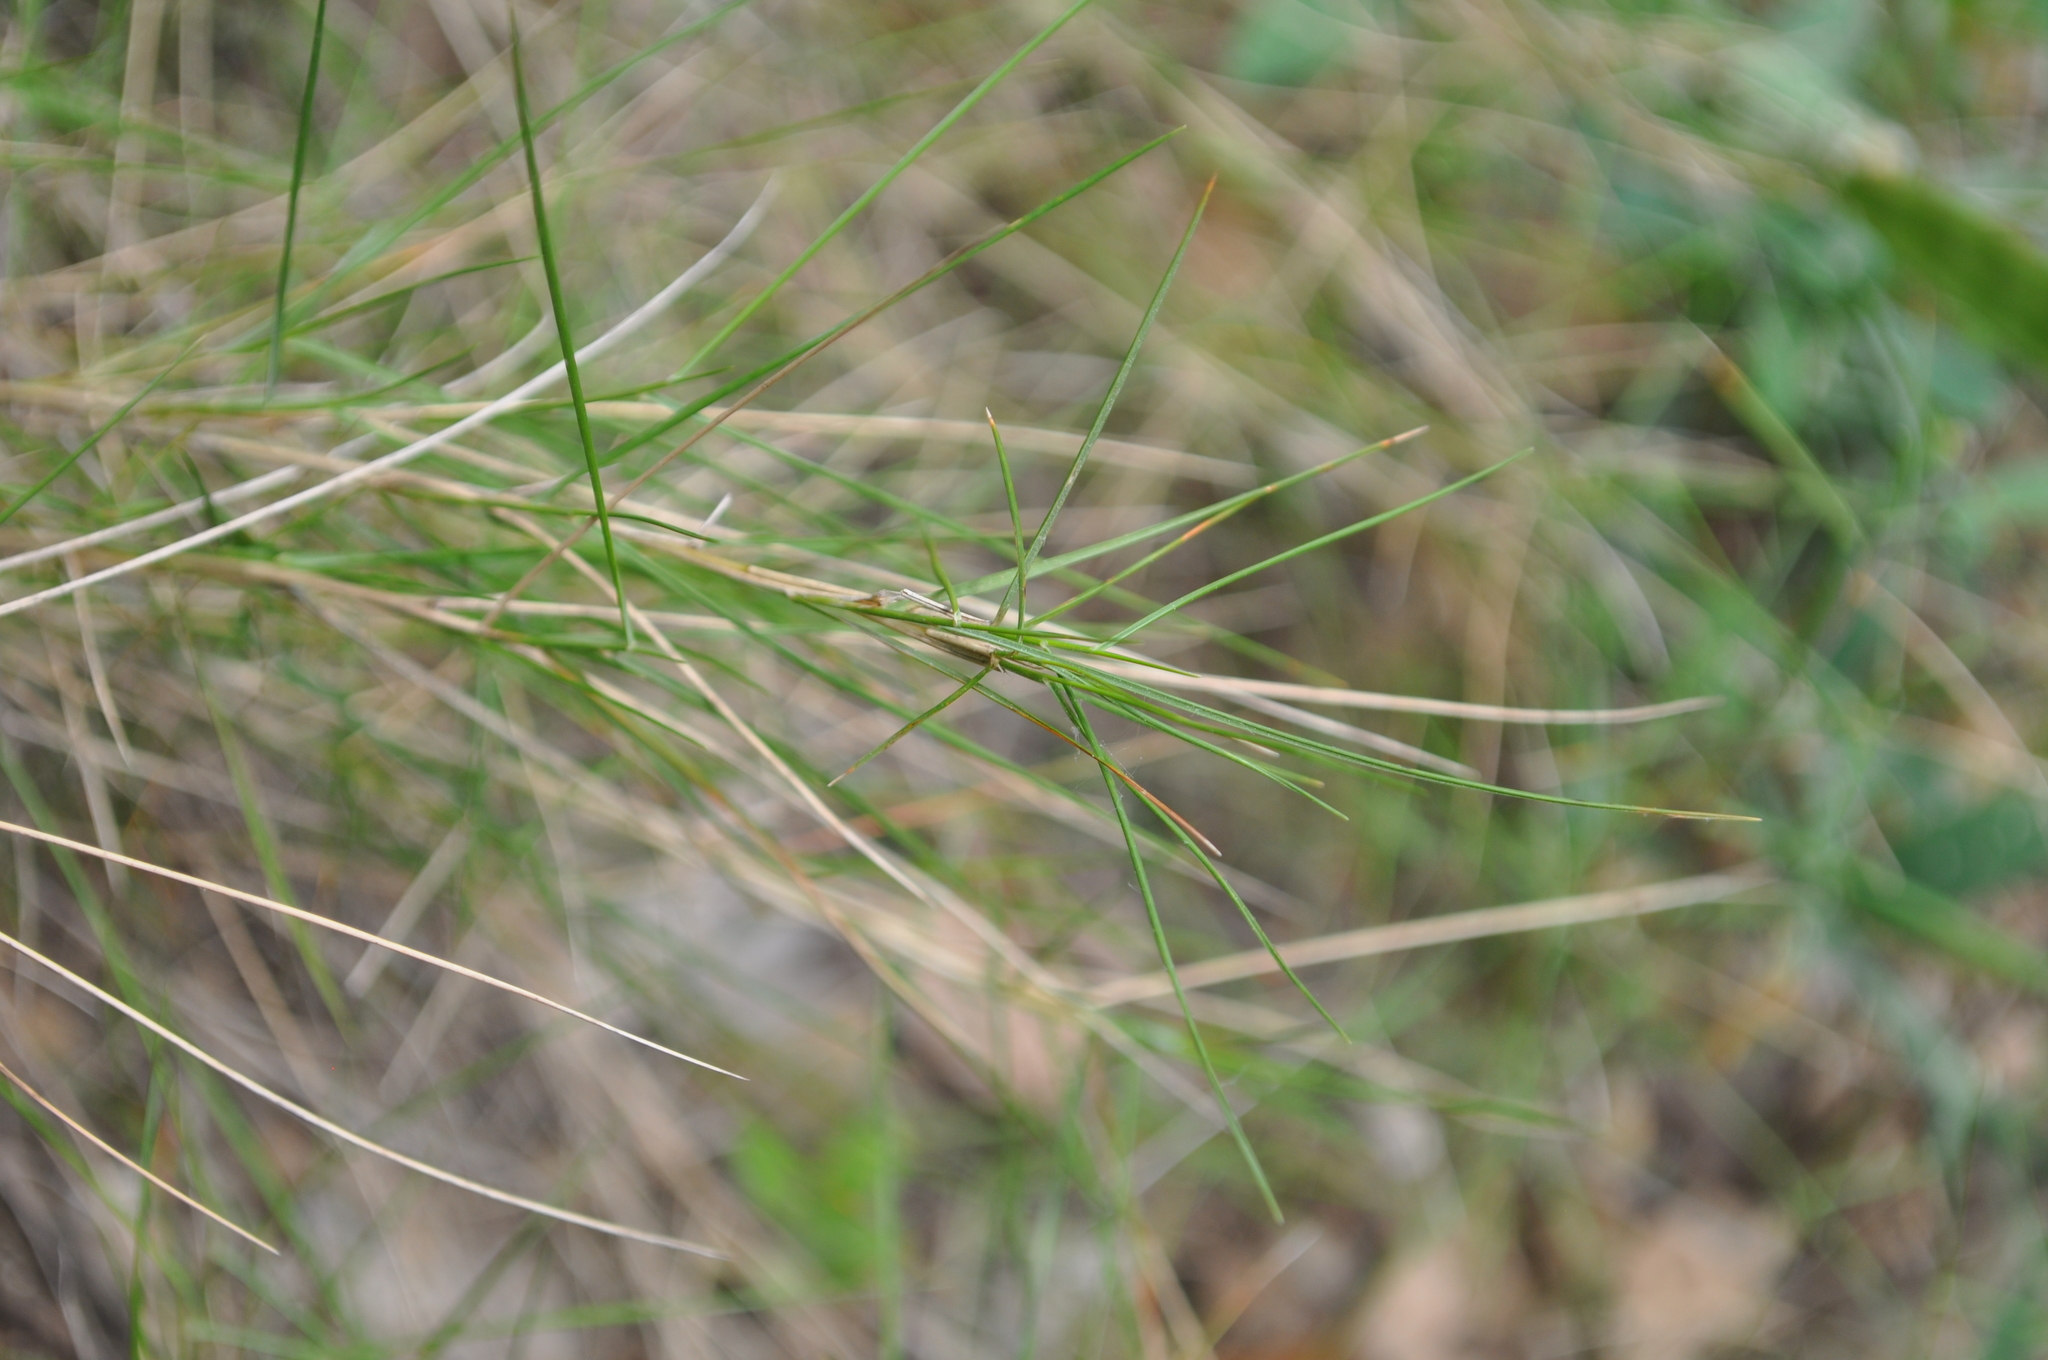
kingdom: Plantae
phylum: Tracheophyta
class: Liliopsida
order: Poales
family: Poaceae
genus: Brachypodium
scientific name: Brachypodium retusum
